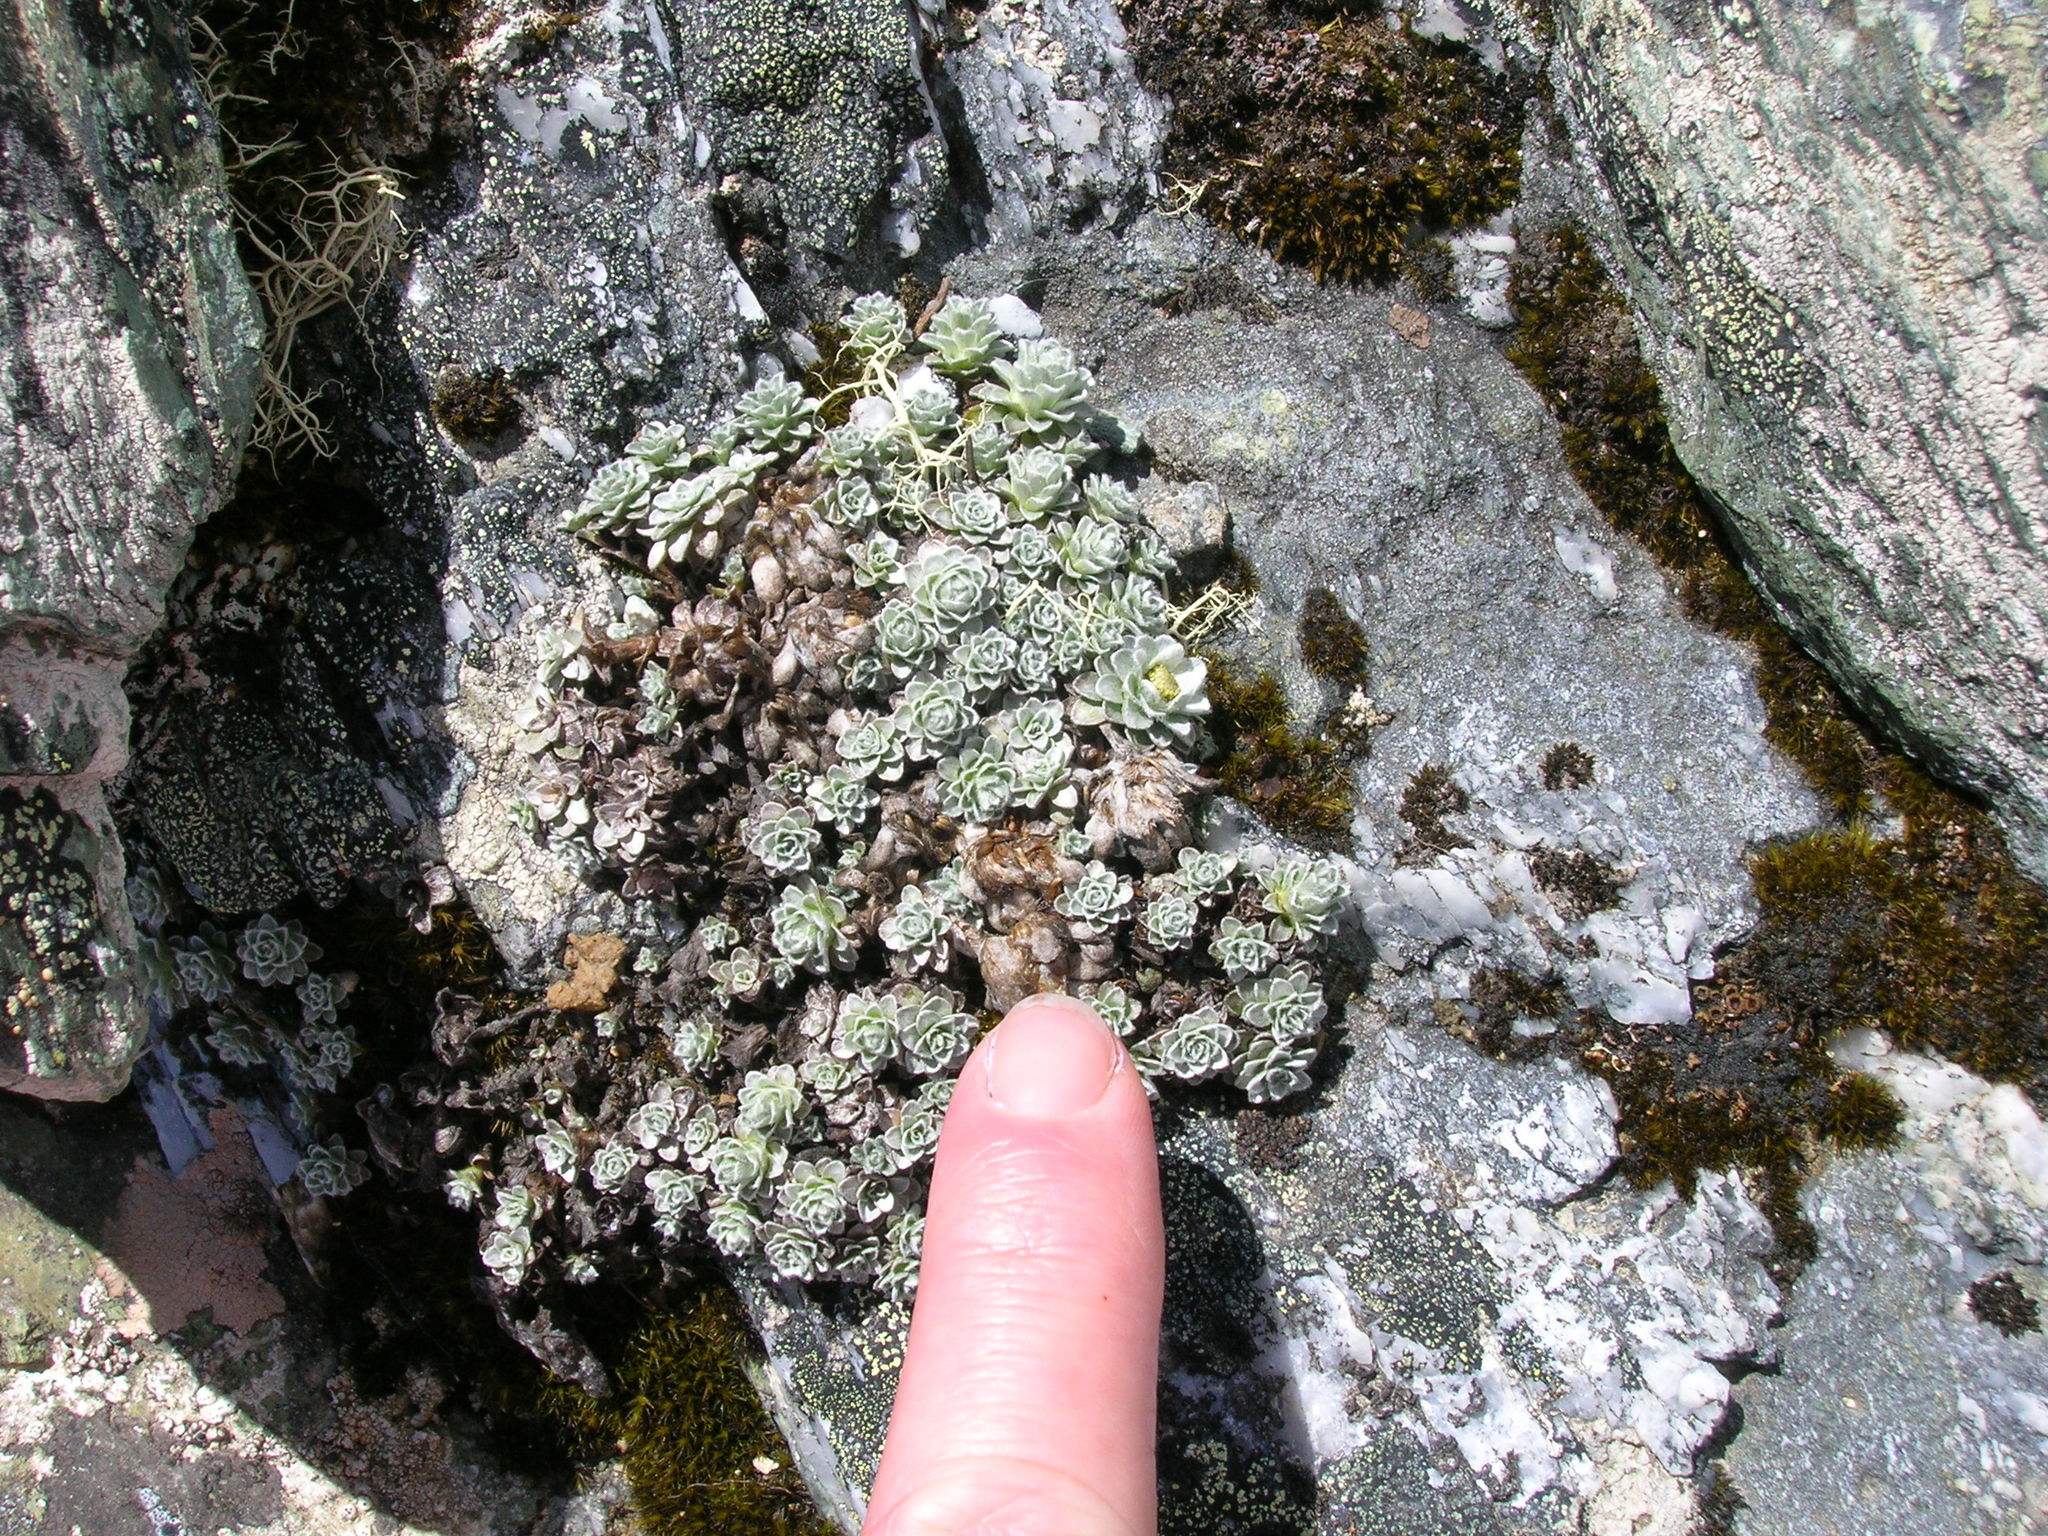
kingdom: Plantae
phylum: Tracheophyta
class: Magnoliopsida
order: Asterales
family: Asteraceae
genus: Leucogenes
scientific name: Leucogenes grandiceps
